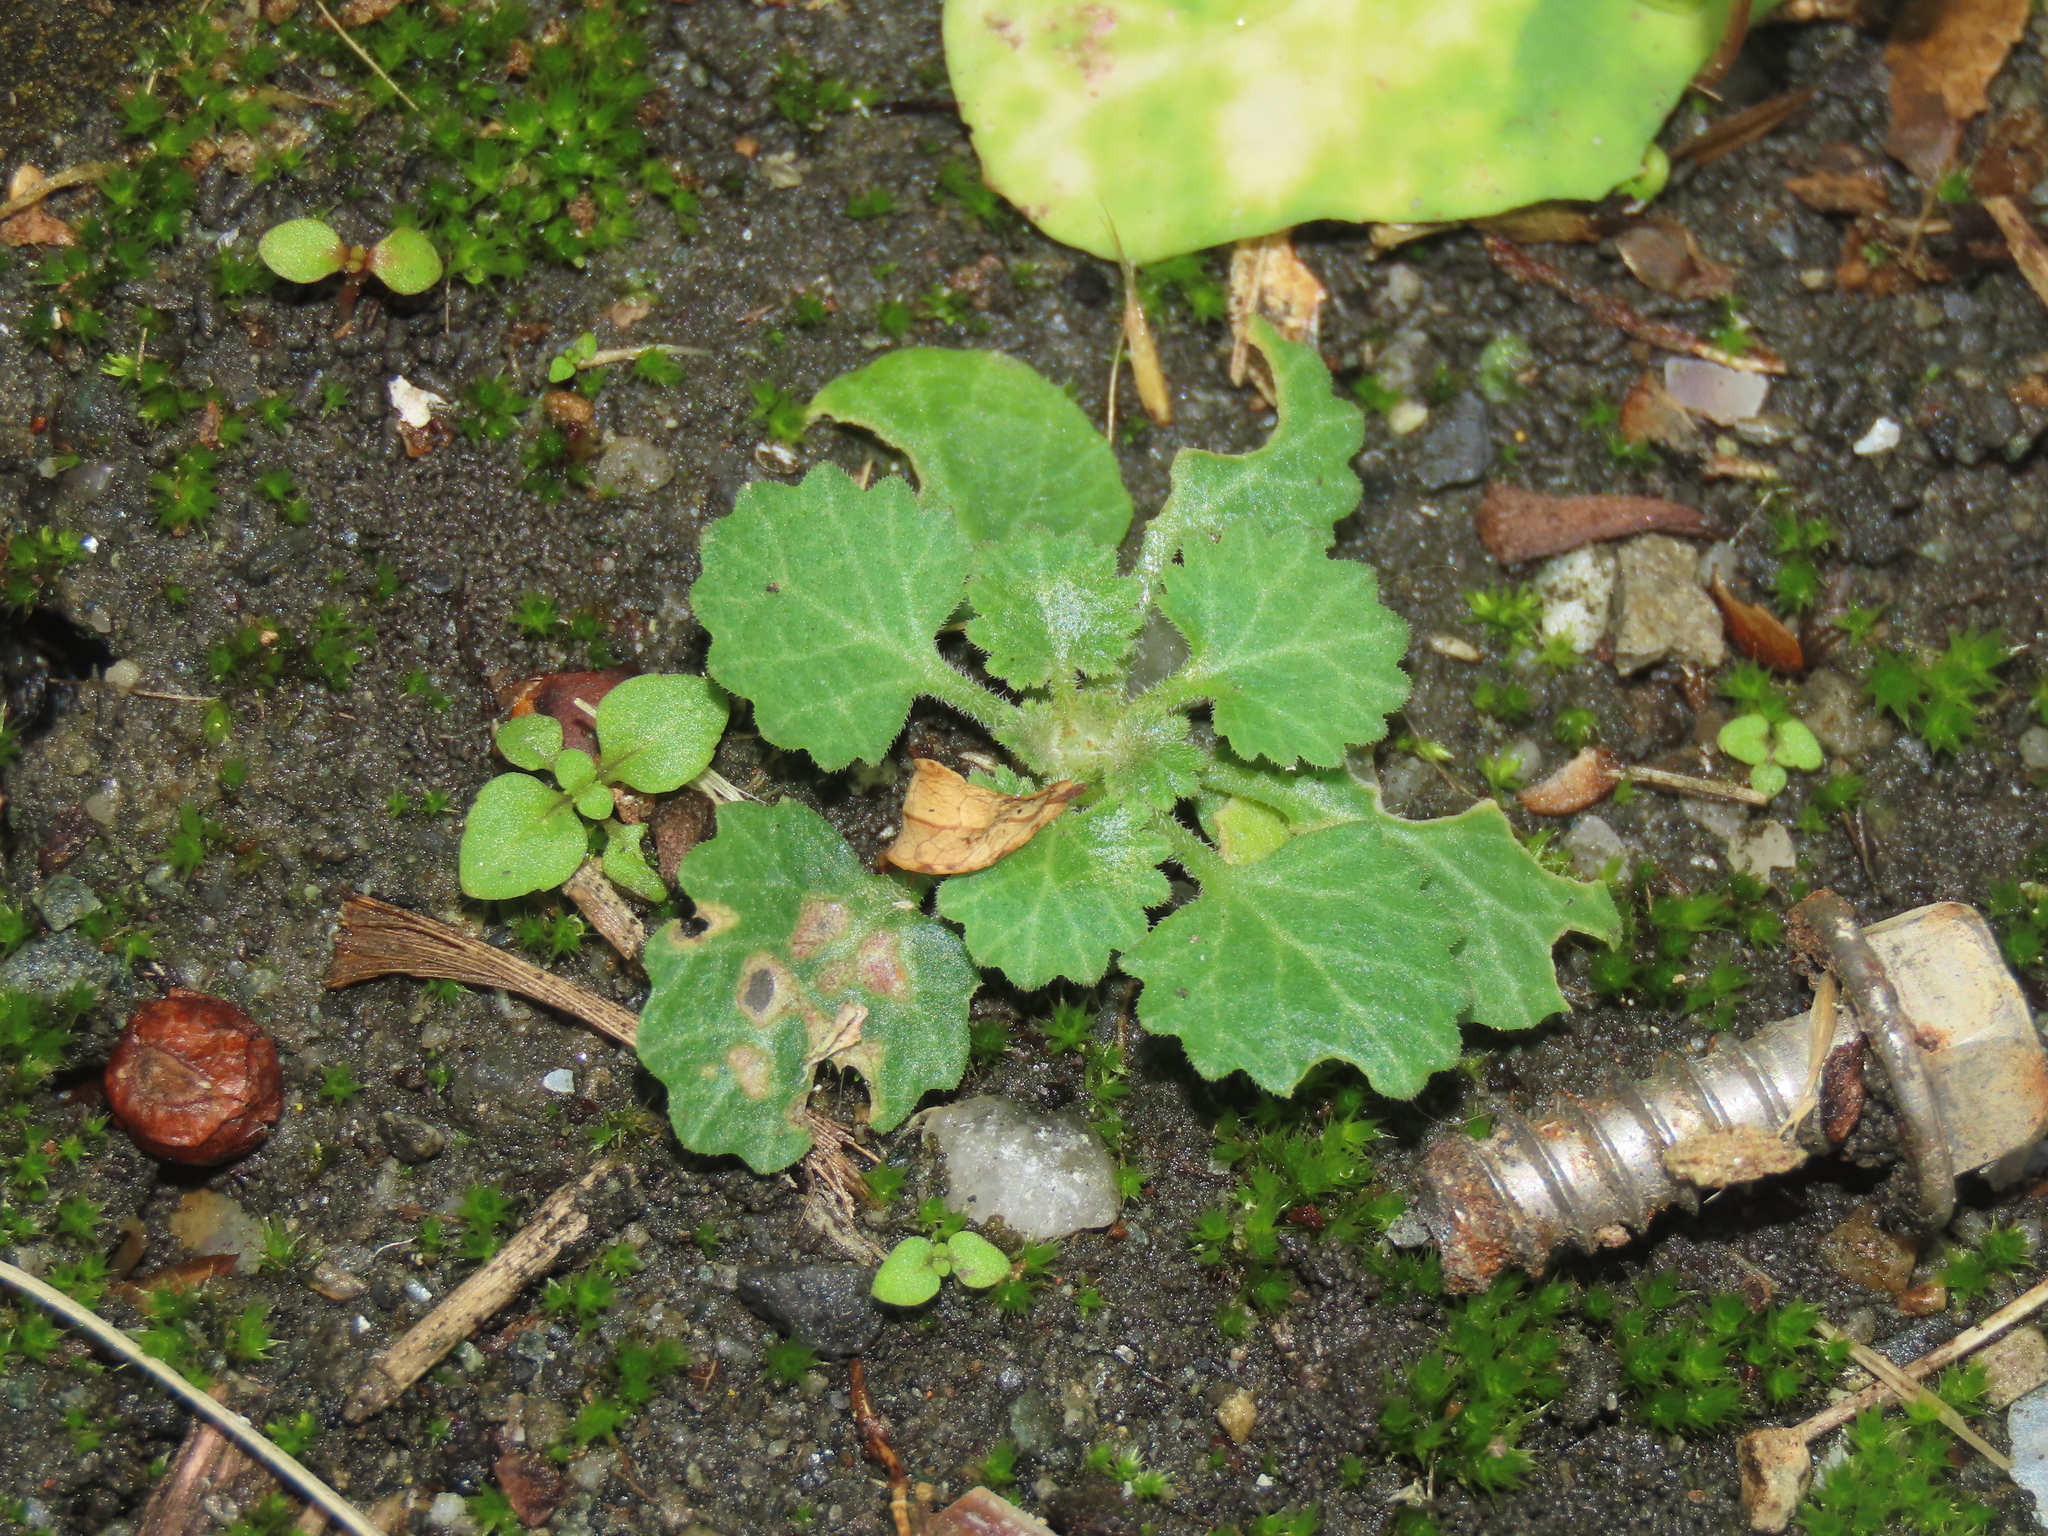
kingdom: Plantae
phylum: Tracheophyta
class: Magnoliopsida
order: Ericales
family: Primulaceae
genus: Androsace
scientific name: Androsace umbellata
